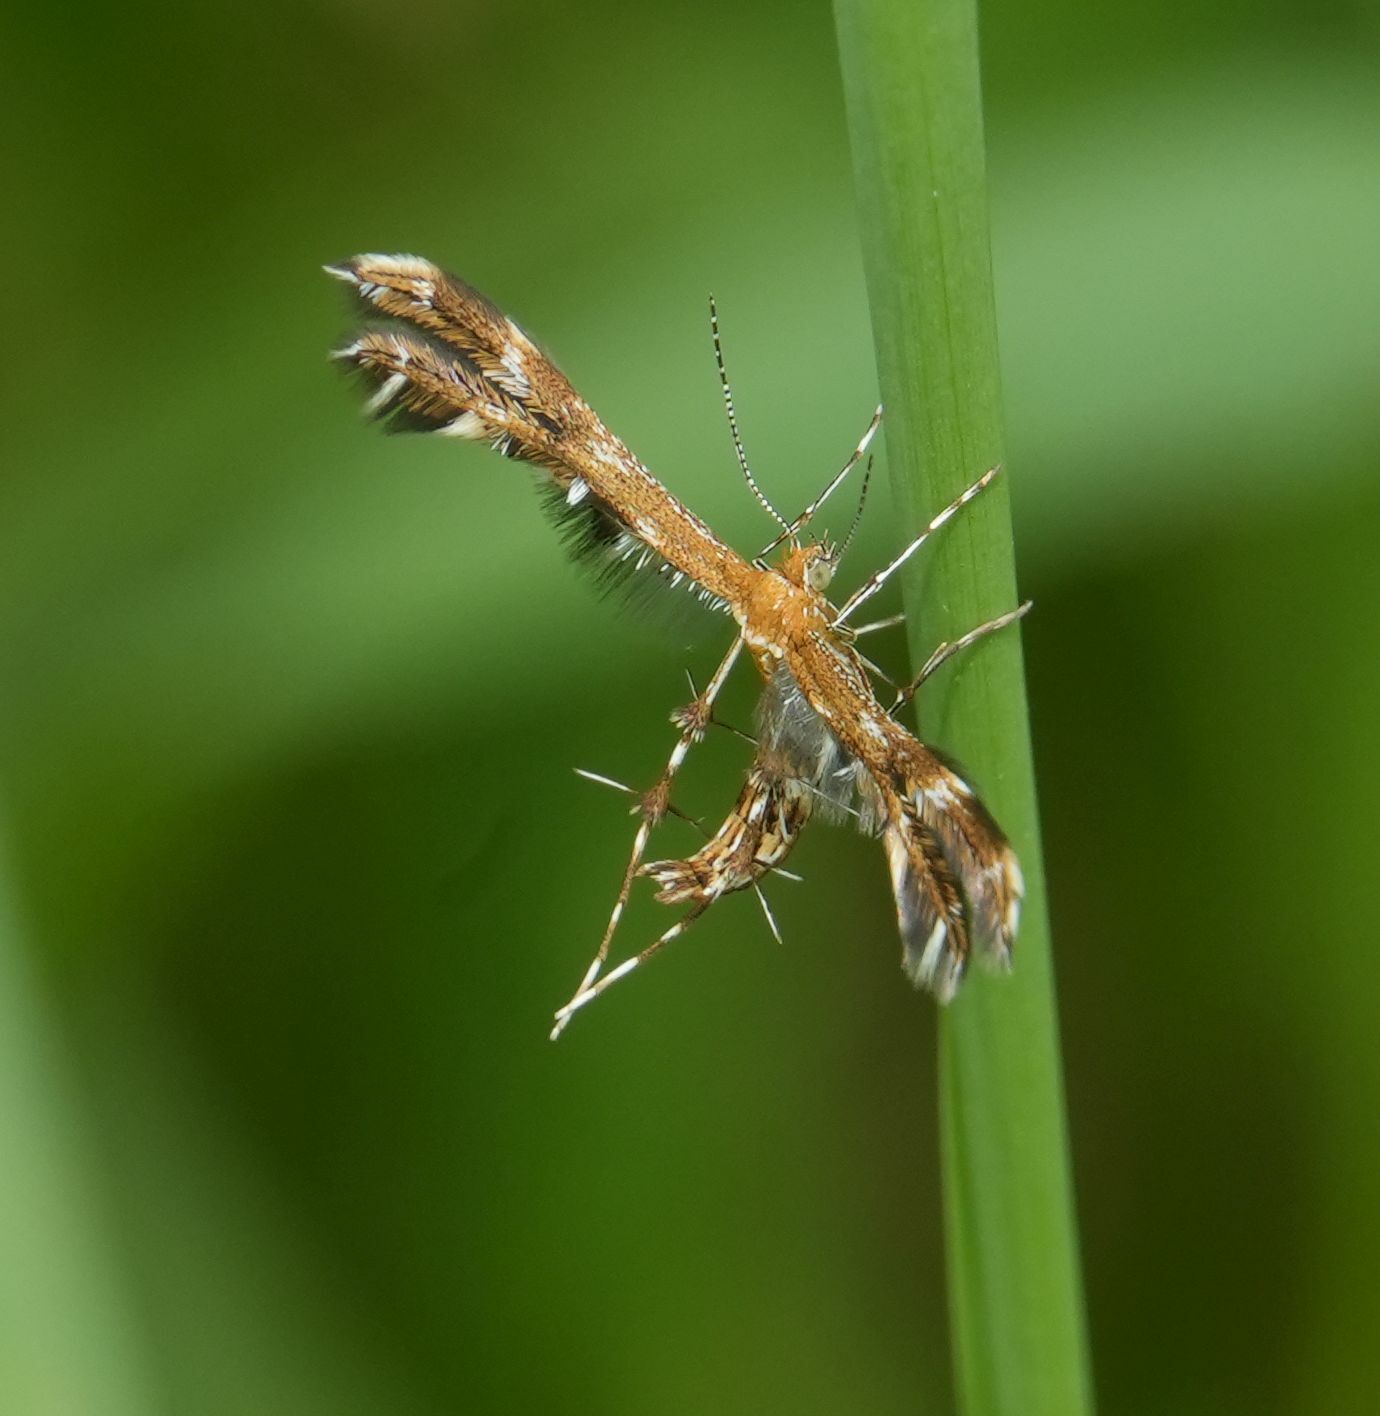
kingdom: Animalia
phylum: Arthropoda
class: Insecta
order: Lepidoptera
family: Pterophoridae
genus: Dejongia
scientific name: Dejongia lobidactylus
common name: Lobed plume moth
